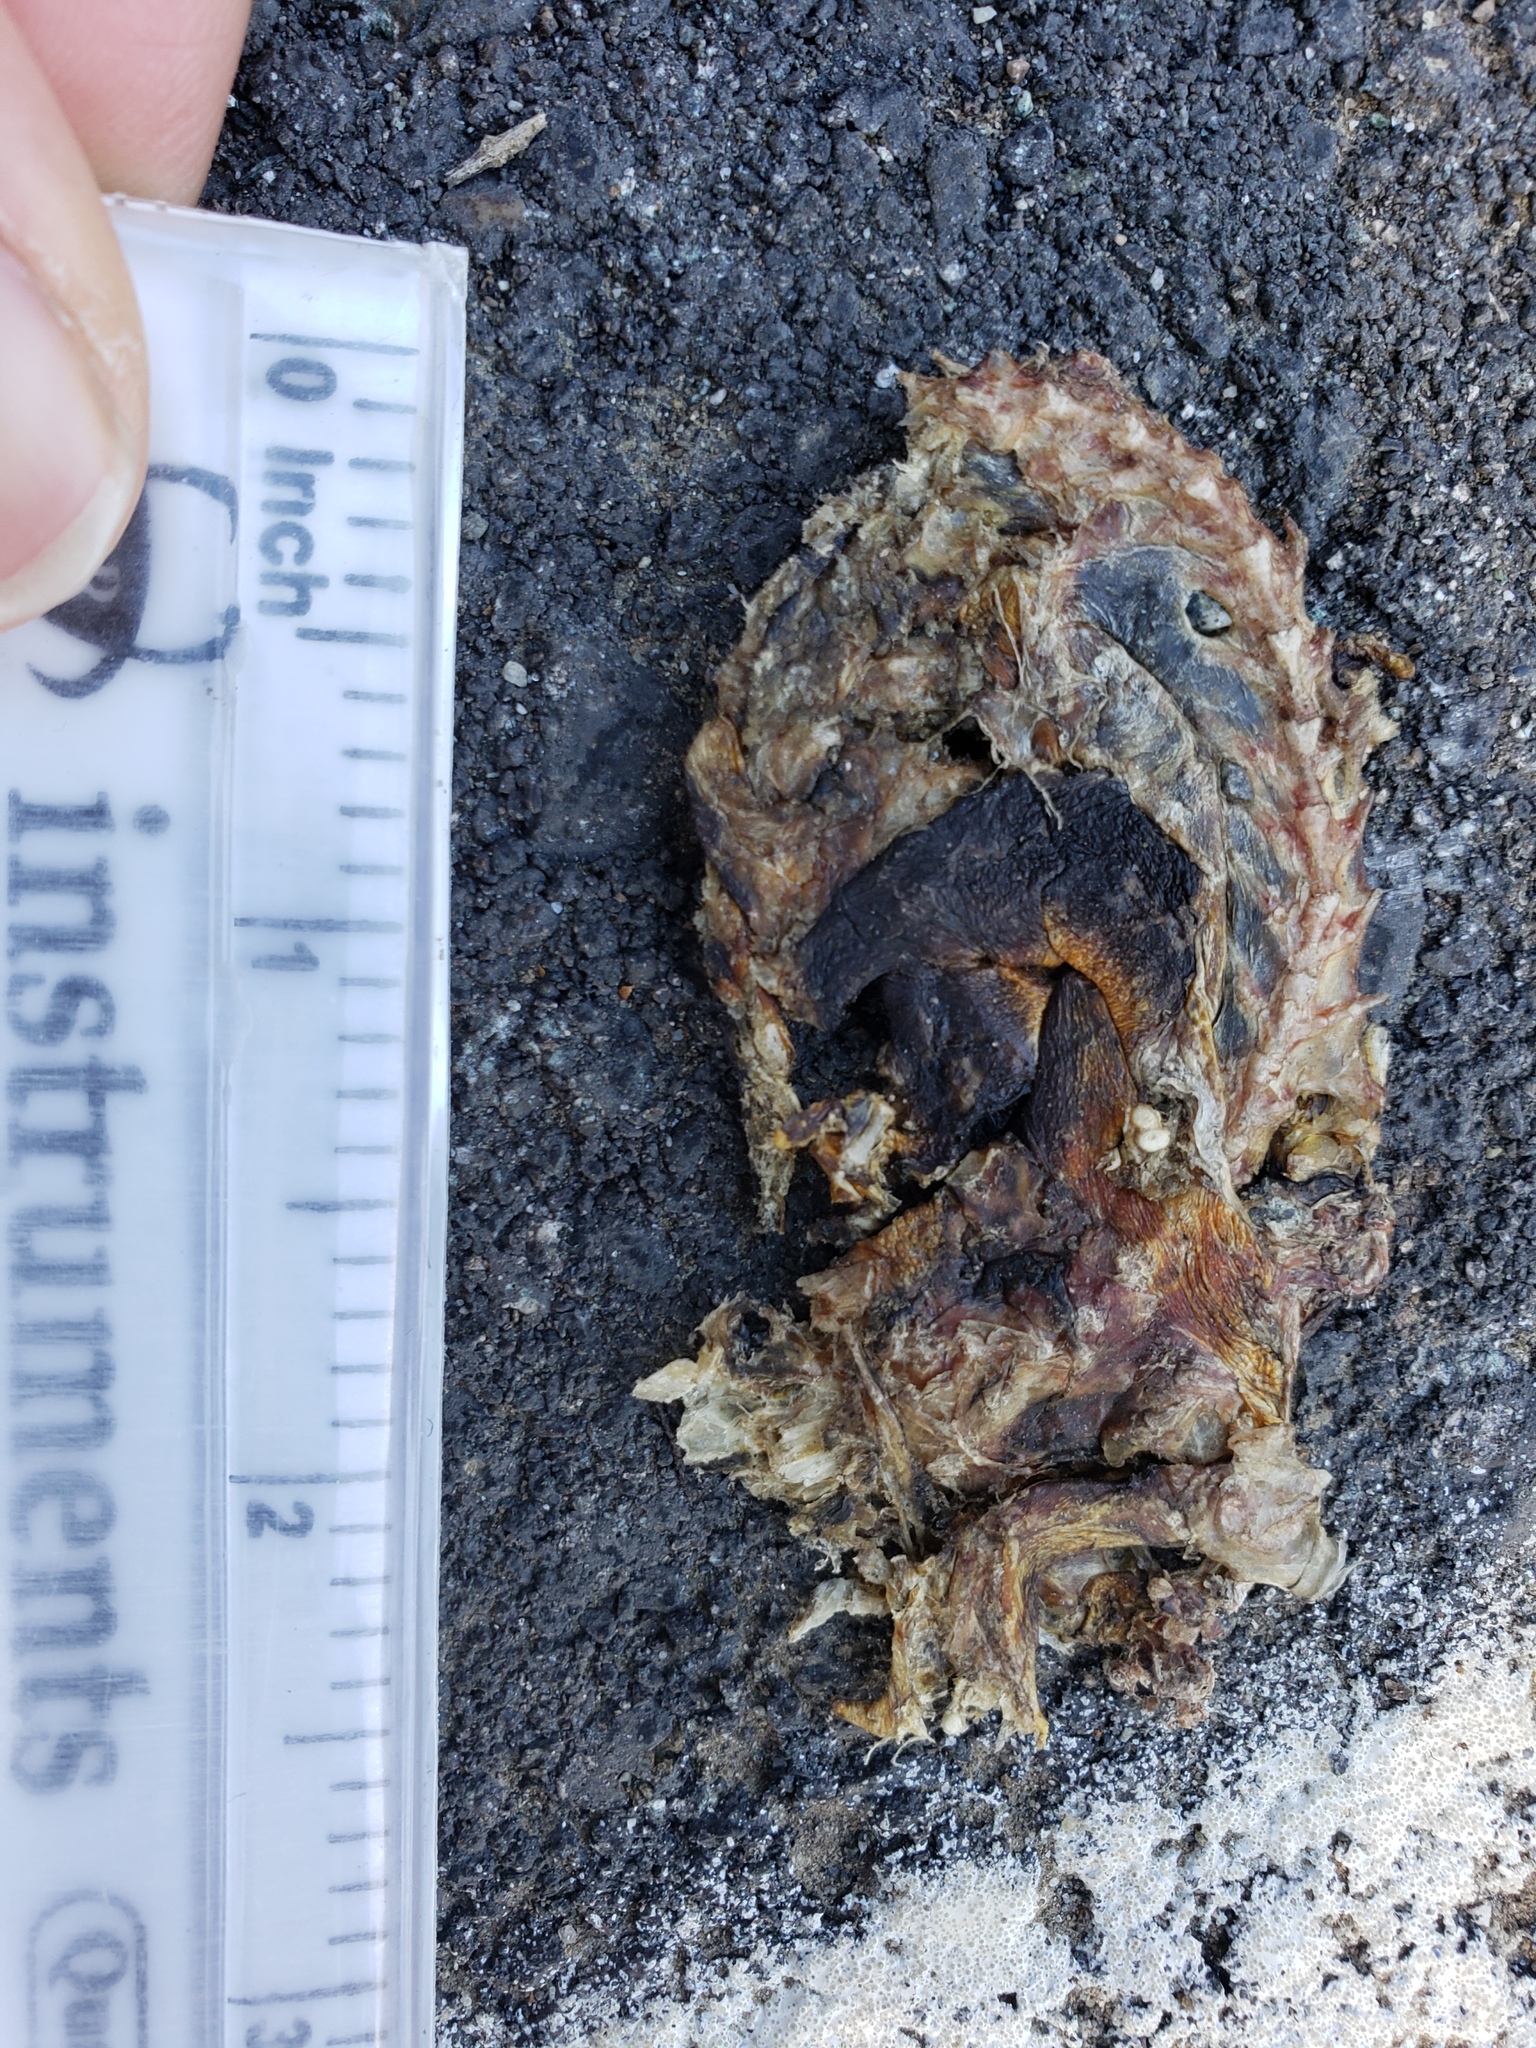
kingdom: Animalia
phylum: Chordata
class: Amphibia
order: Caudata
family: Salamandridae
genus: Taricha
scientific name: Taricha
